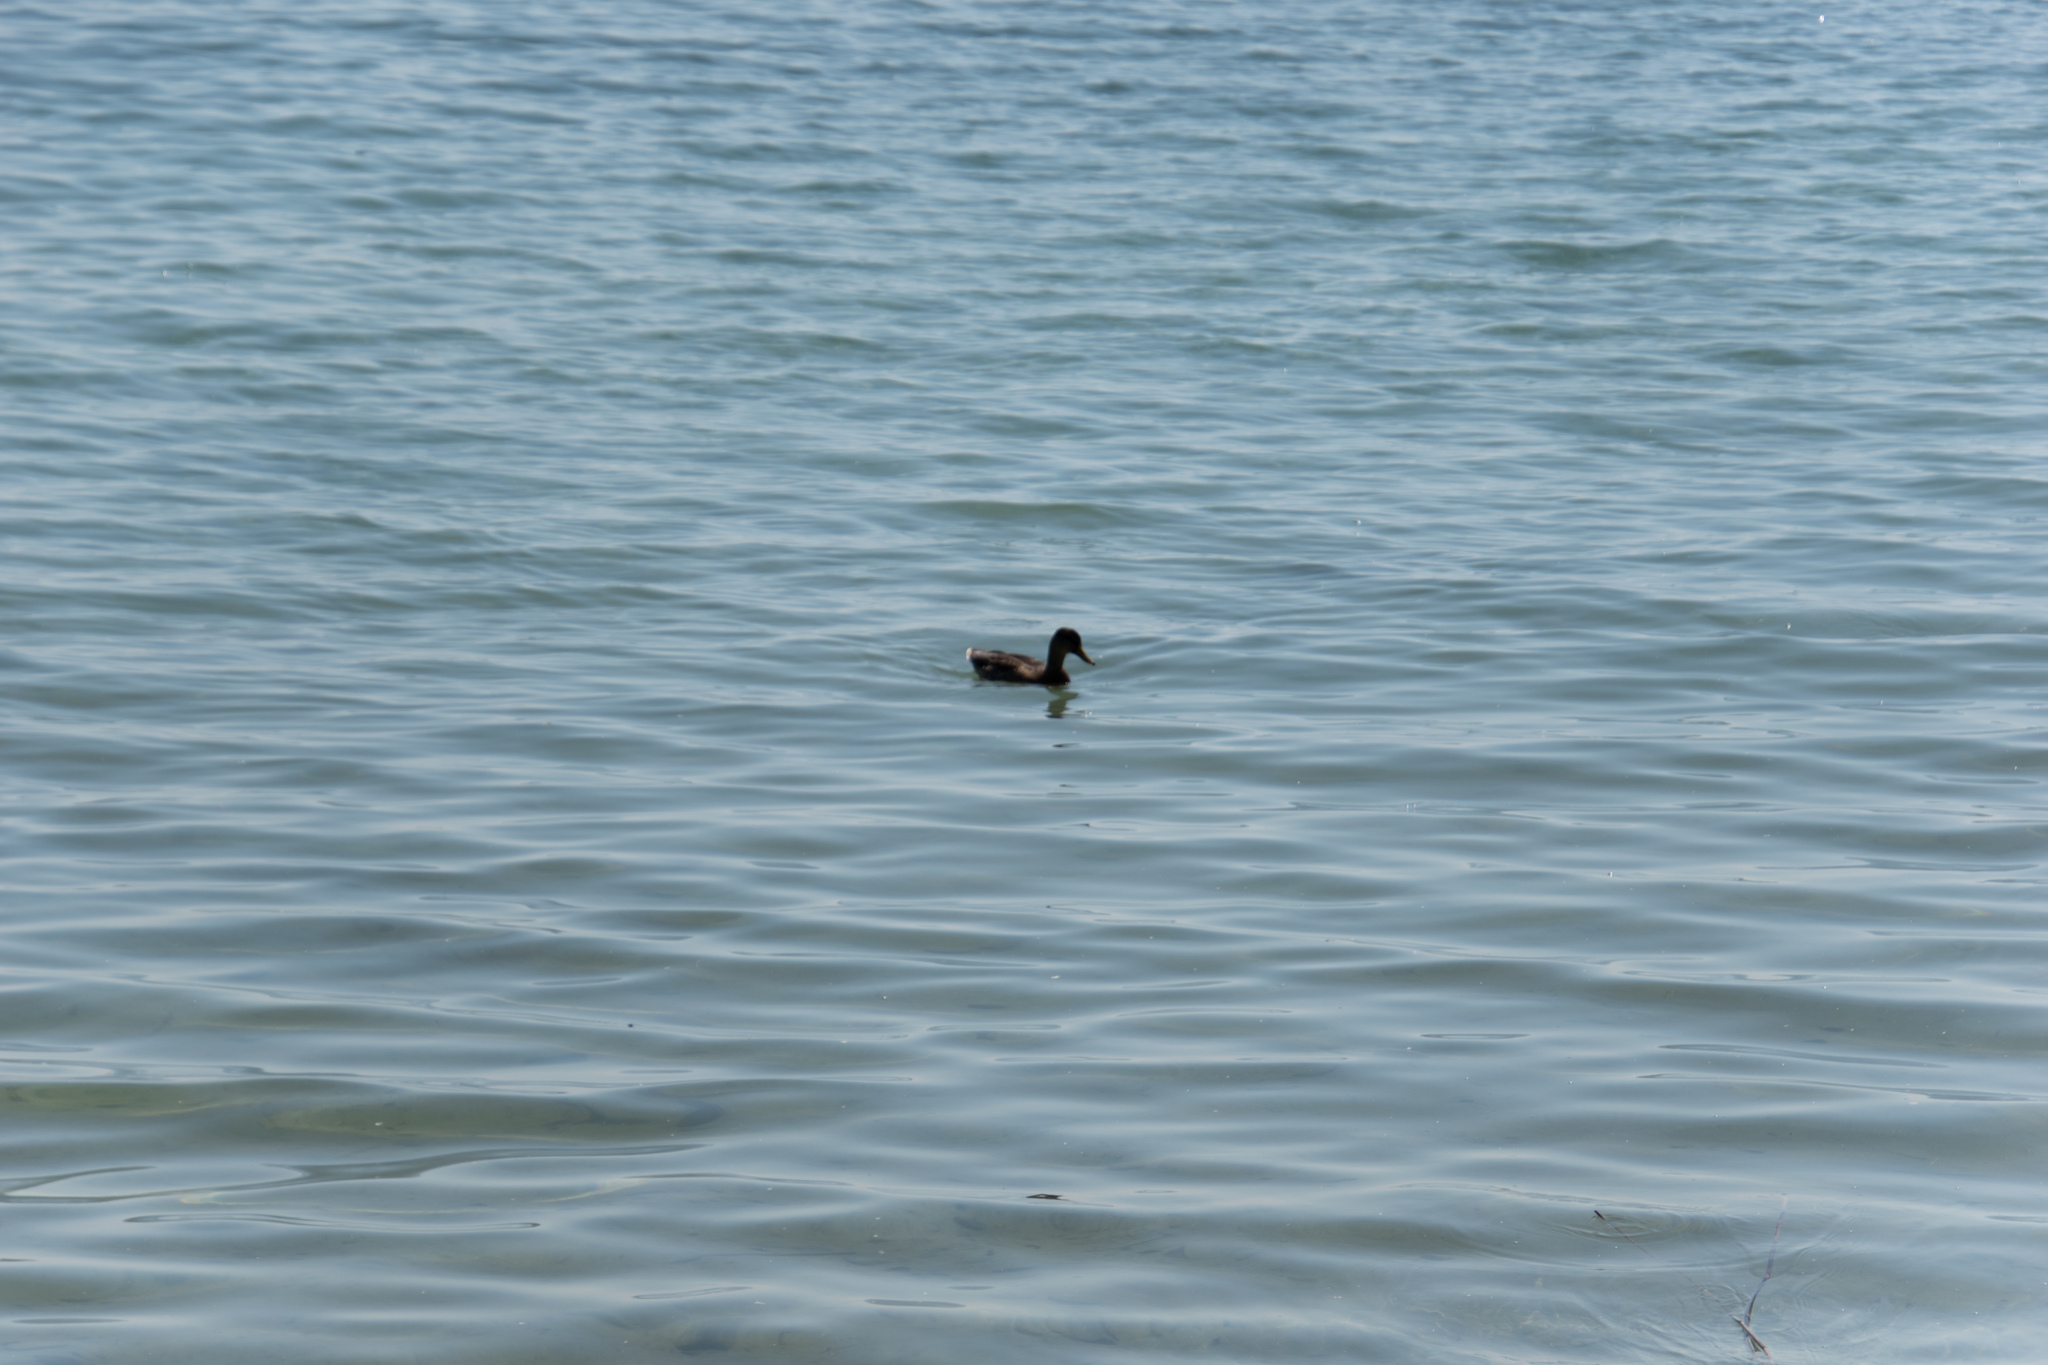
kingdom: Animalia
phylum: Chordata
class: Aves
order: Anseriformes
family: Anatidae
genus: Anas
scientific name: Anas platyrhynchos
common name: Mallard
